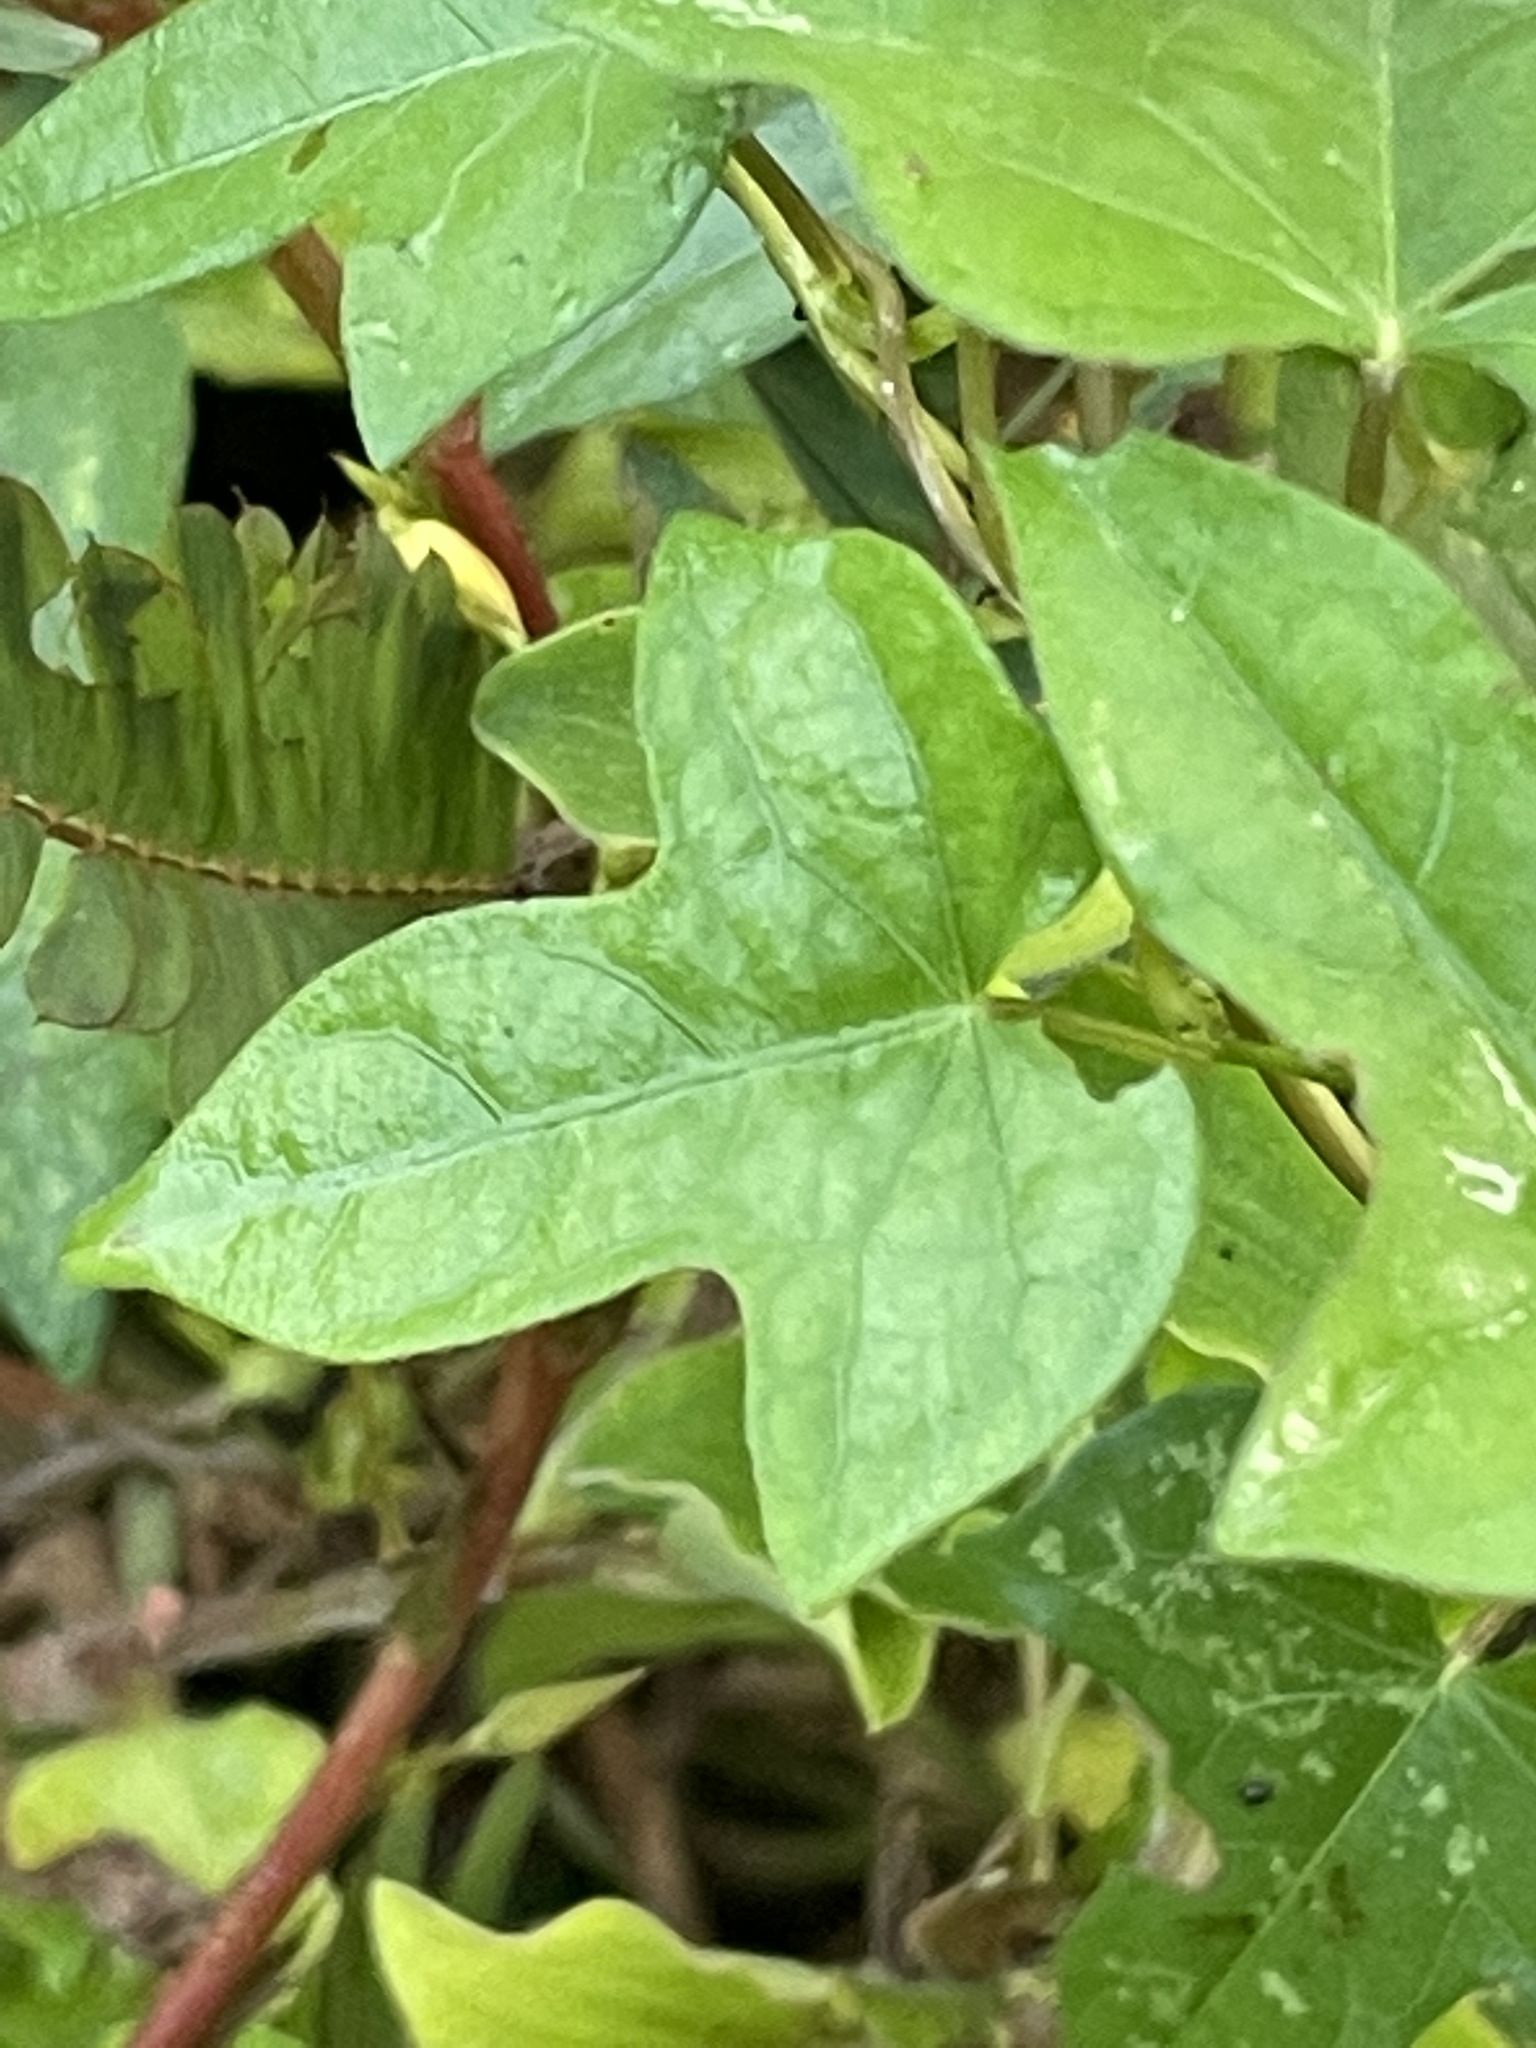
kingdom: Plantae
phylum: Tracheophyta
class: Magnoliopsida
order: Solanales
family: Convolvulaceae
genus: Ipomoea
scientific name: Ipomoea triloba
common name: Little-bell
